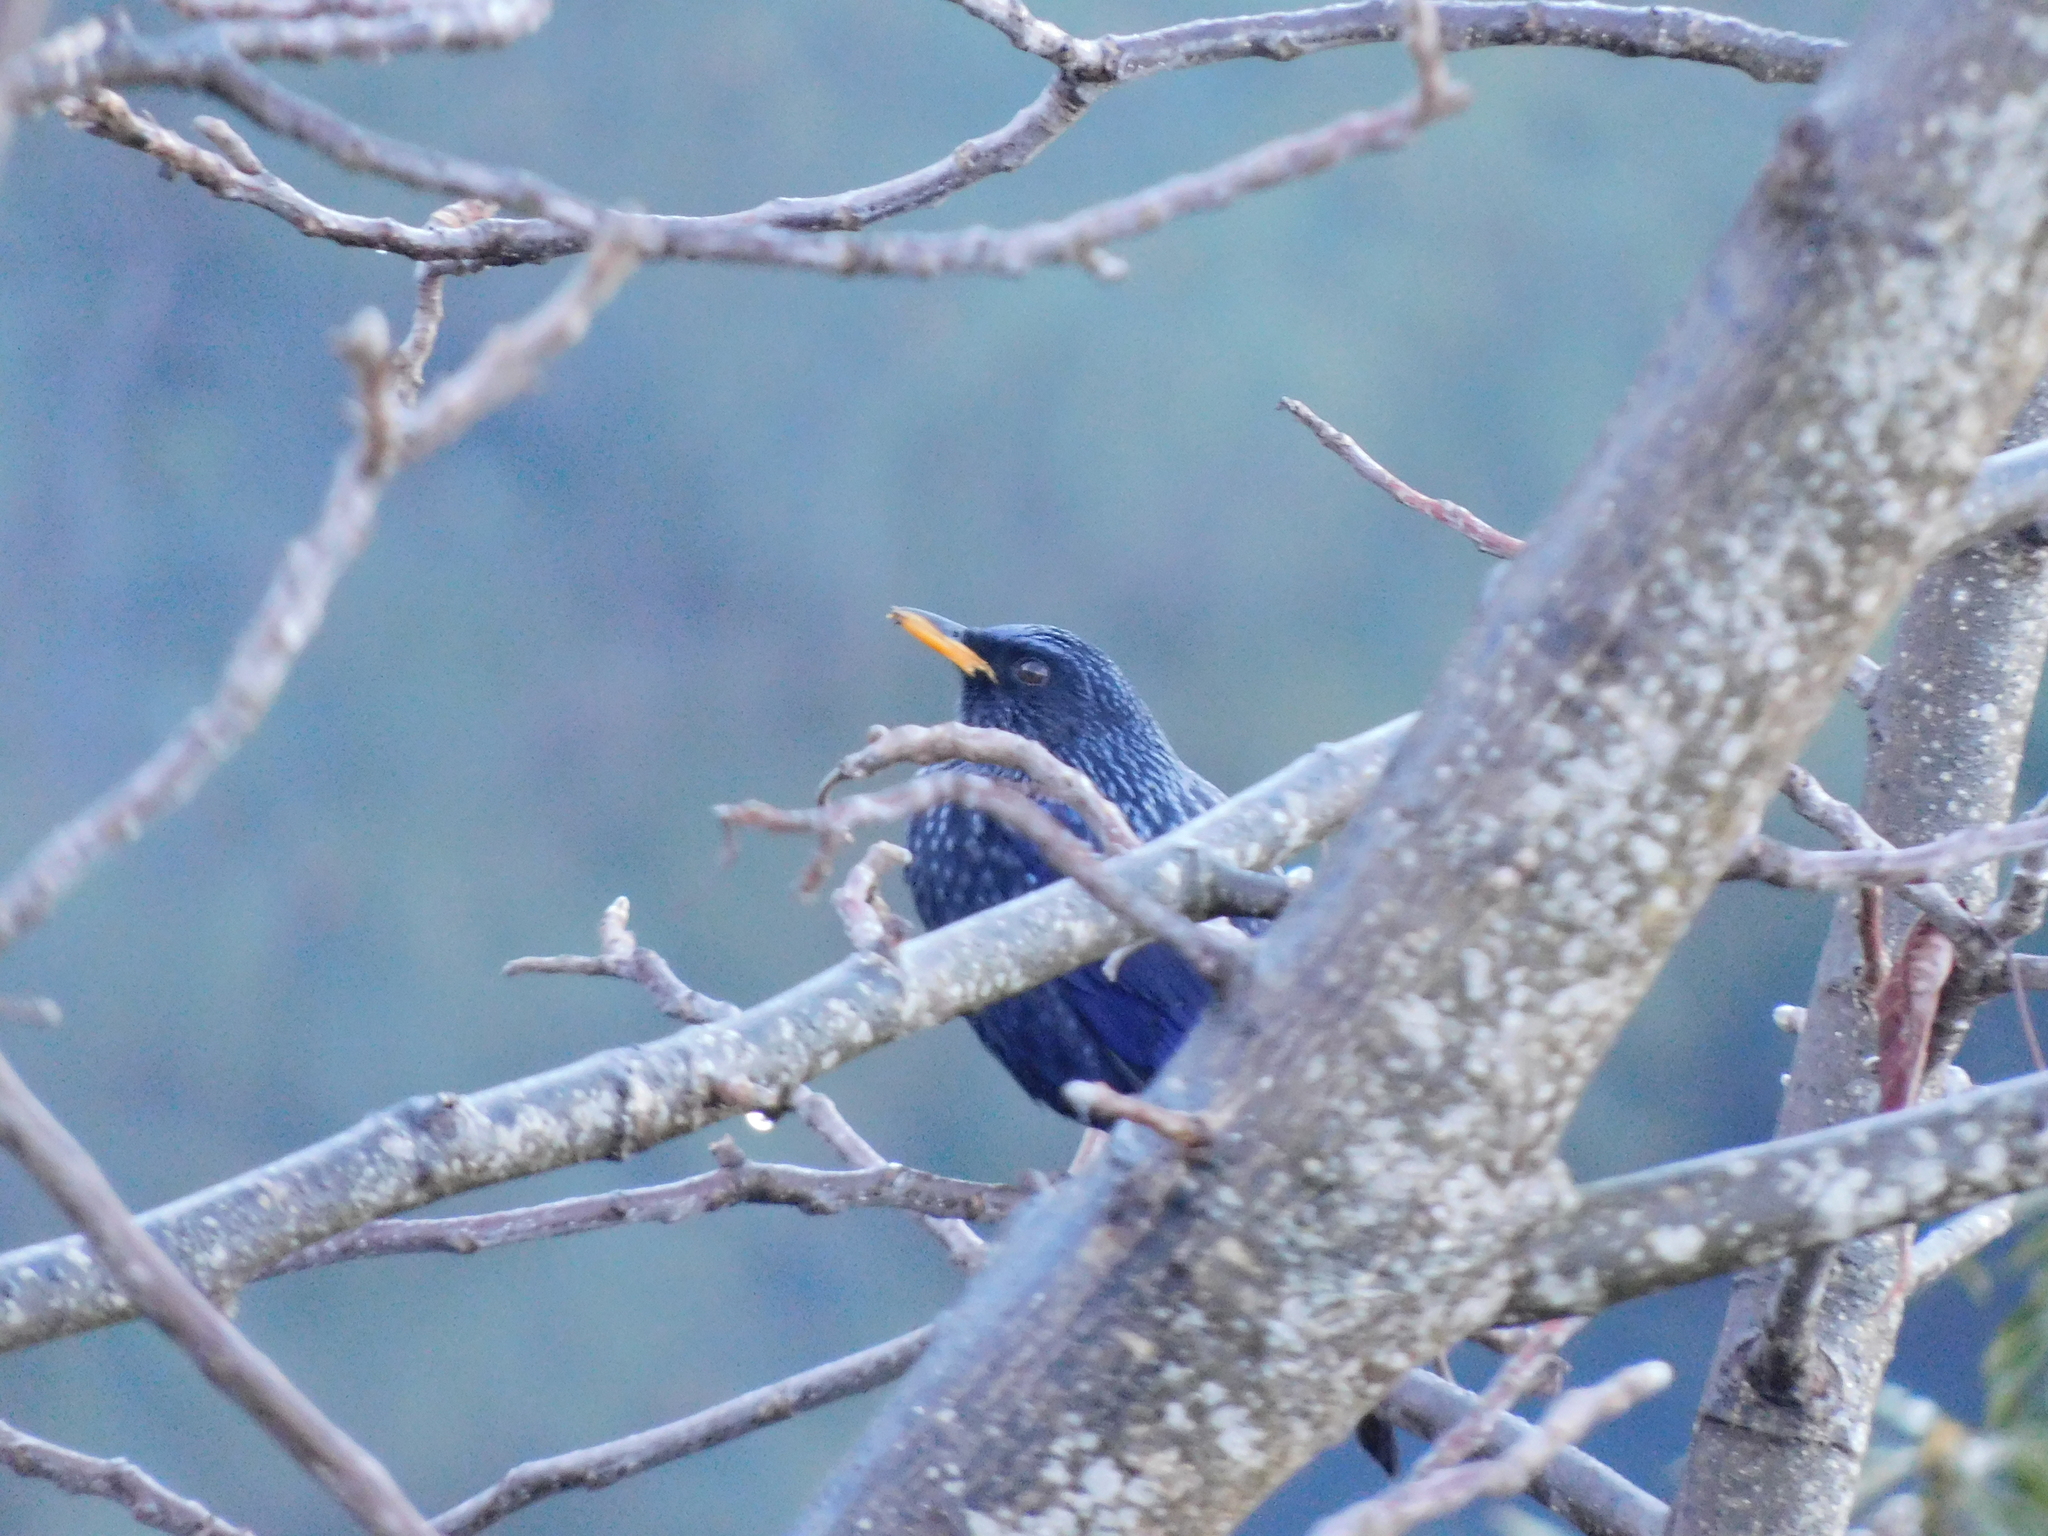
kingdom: Animalia
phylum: Chordata
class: Aves
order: Passeriformes
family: Muscicapidae
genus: Myophonus
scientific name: Myophonus caeruleus
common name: Blue whistling-thrush
